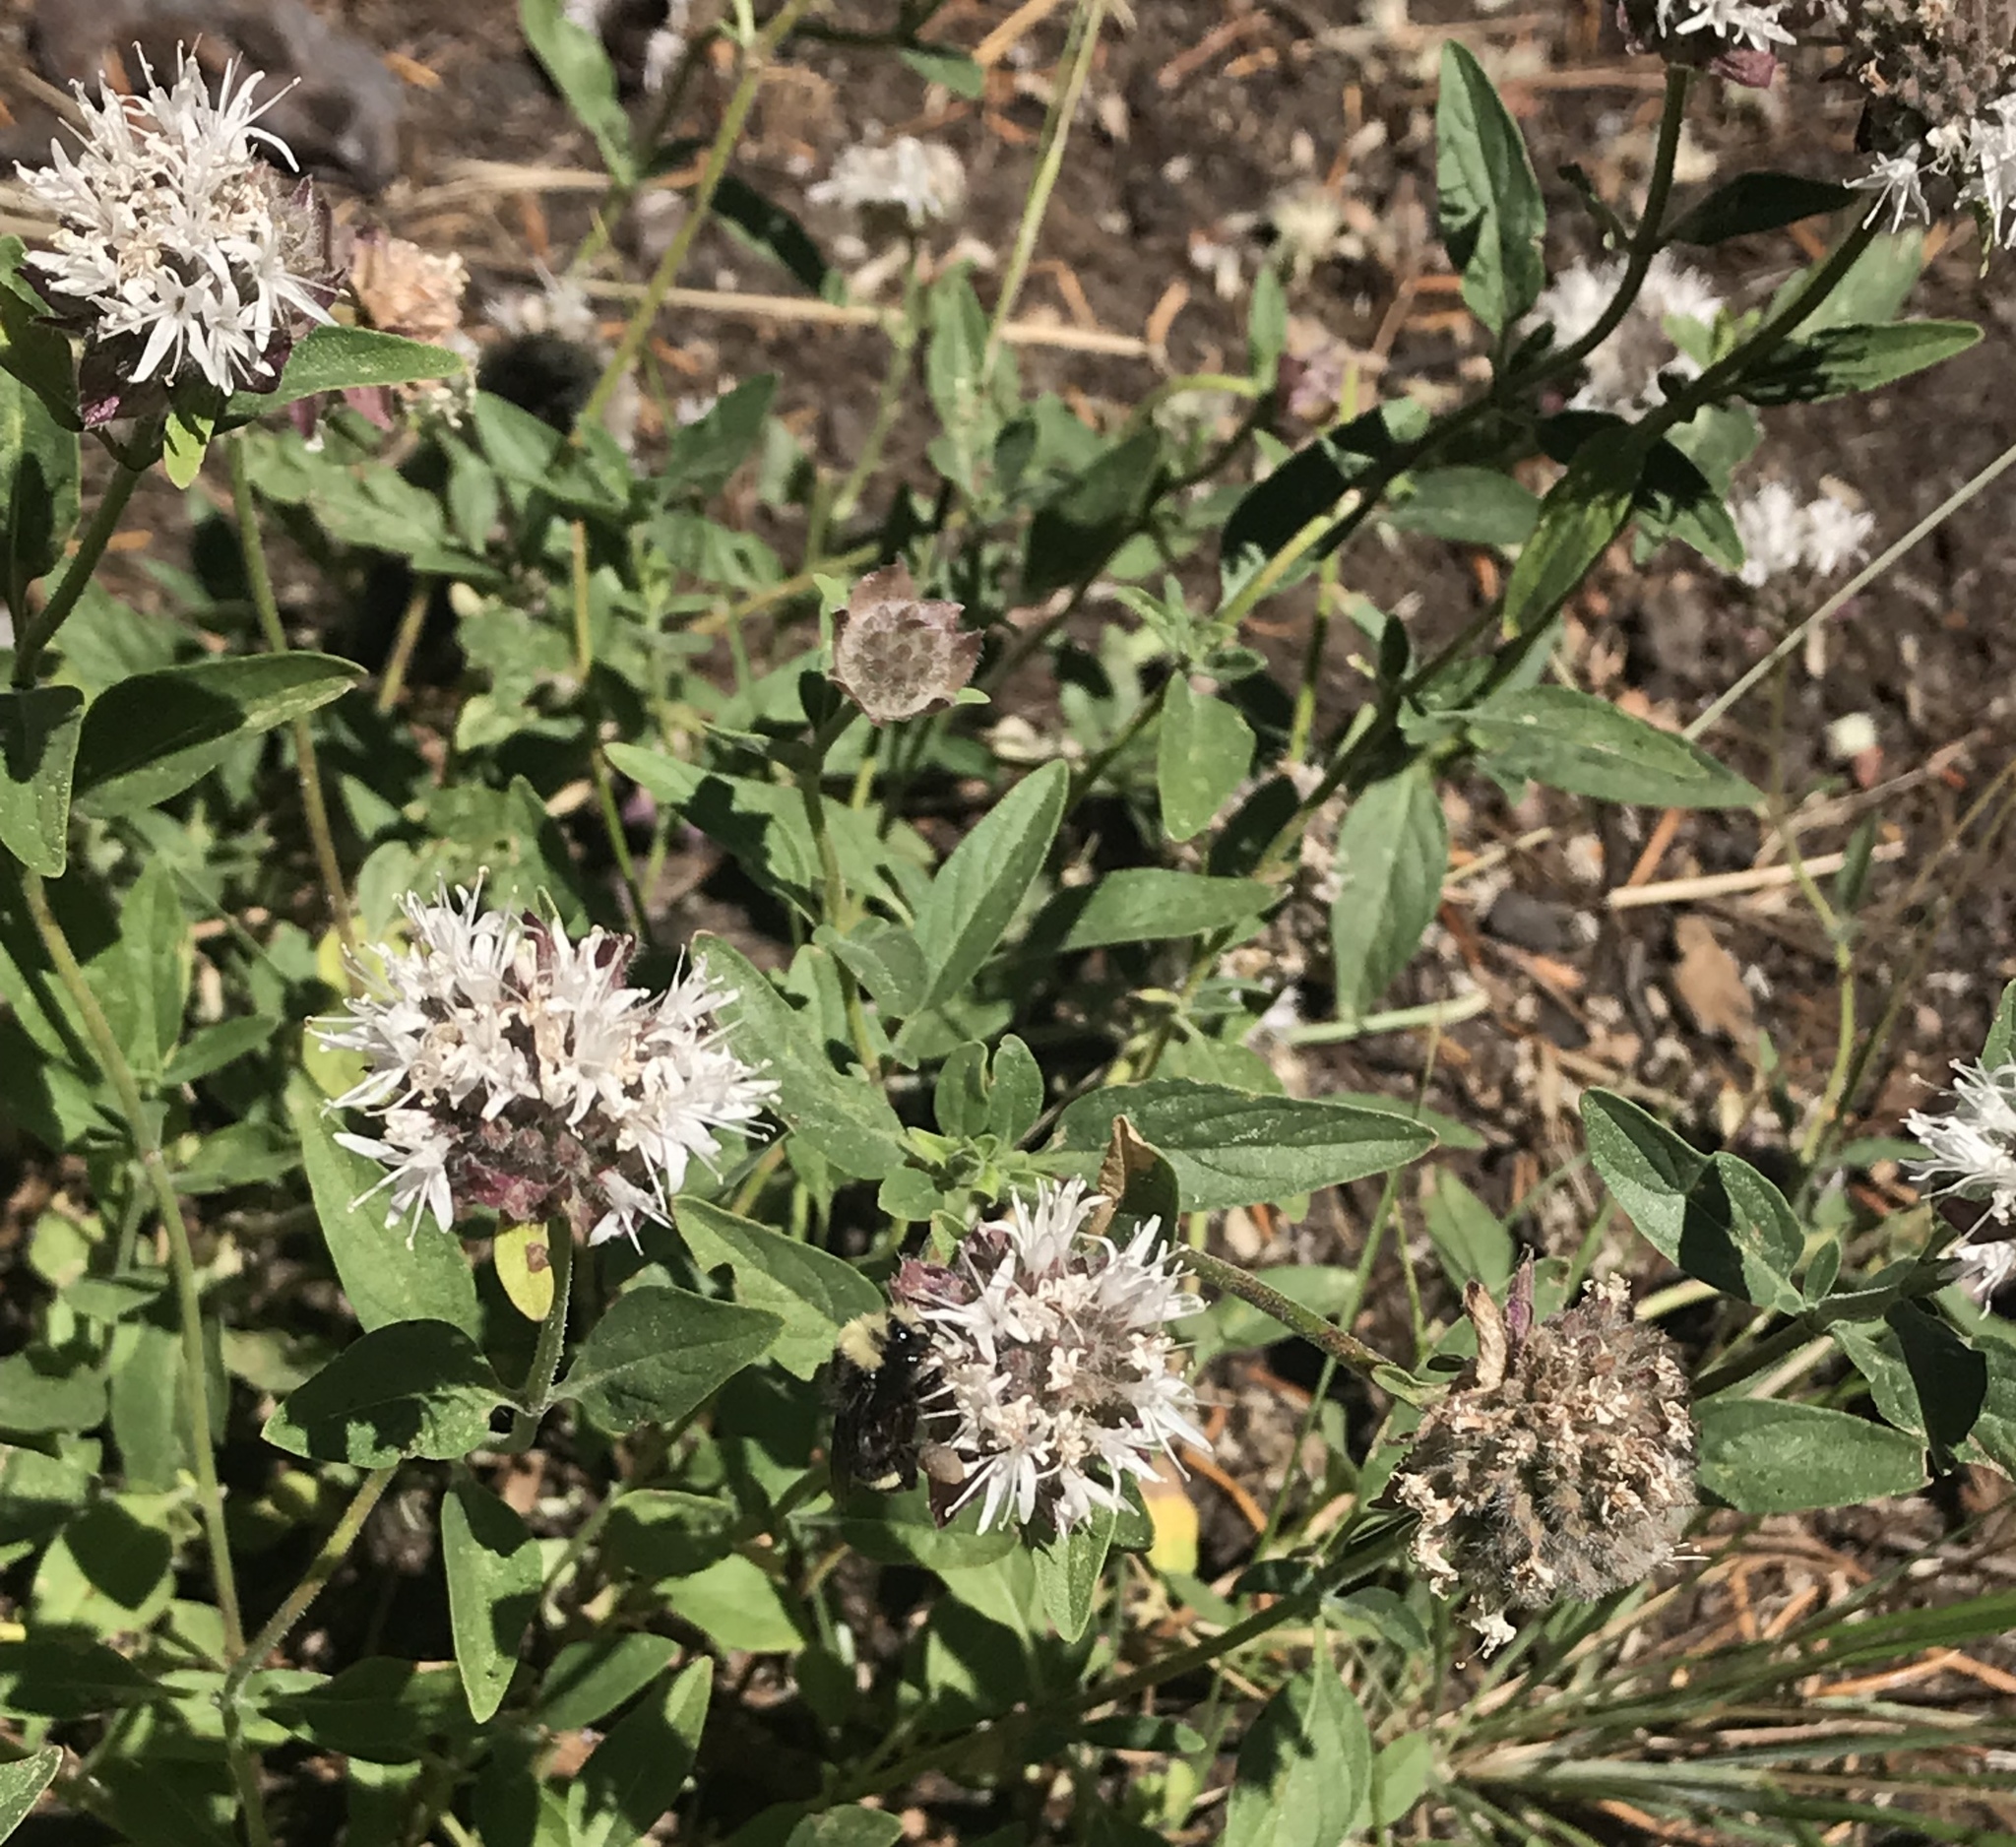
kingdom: Plantae
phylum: Tracheophyta
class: Magnoliopsida
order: Lamiales
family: Lamiaceae
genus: Monardella
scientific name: Monardella odoratissima
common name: Pacific monardella
